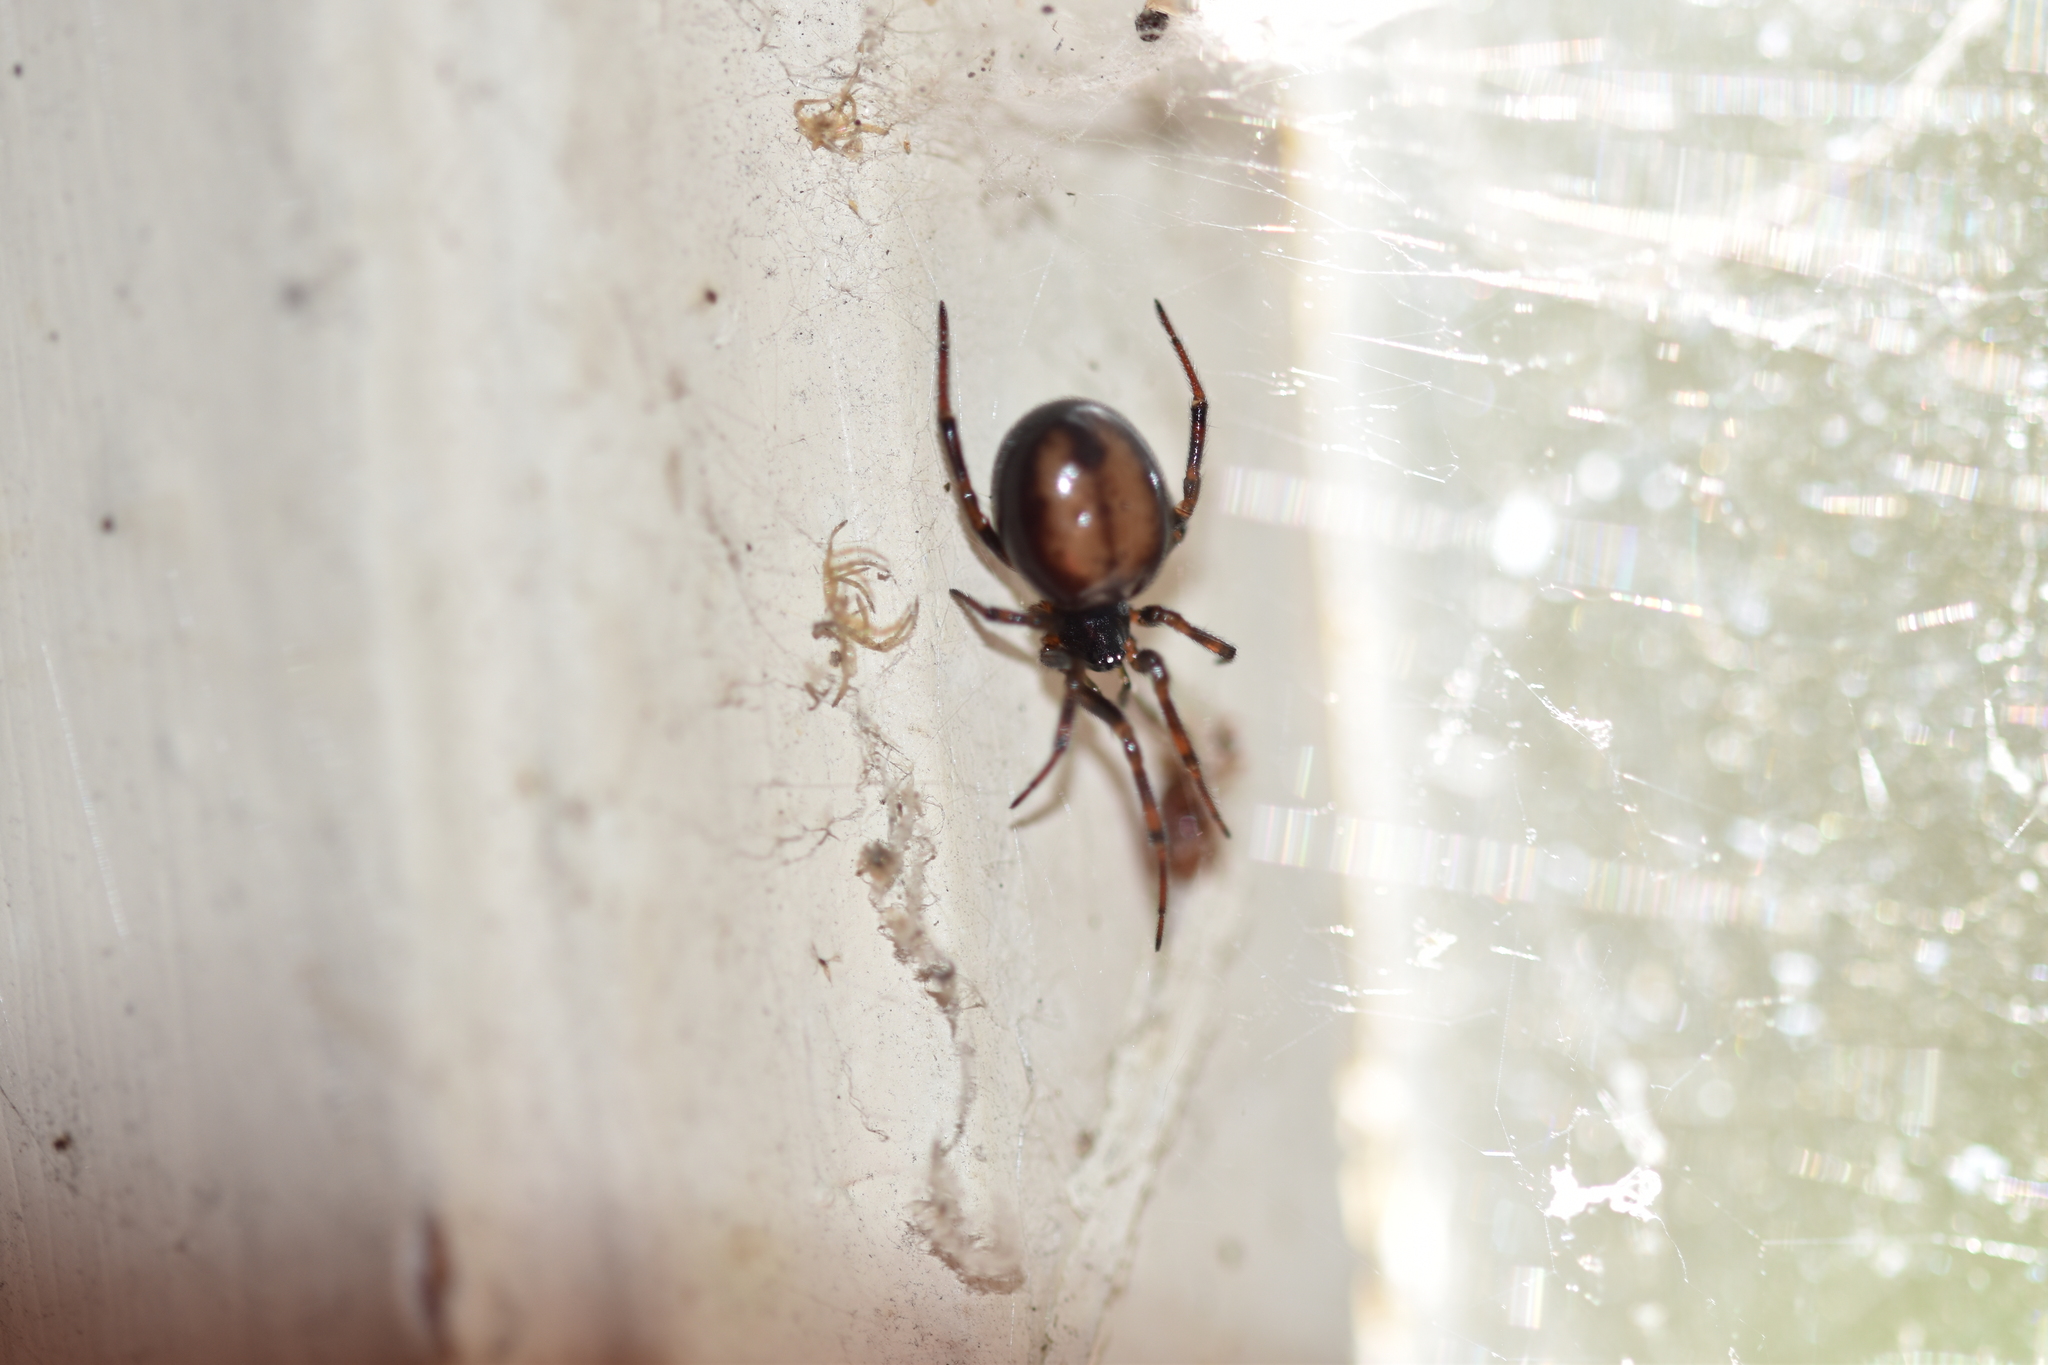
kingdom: Animalia
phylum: Arthropoda
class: Arachnida
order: Araneae
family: Theridiidae
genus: Steatoda
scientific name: Steatoda bipunctata
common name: False widow
